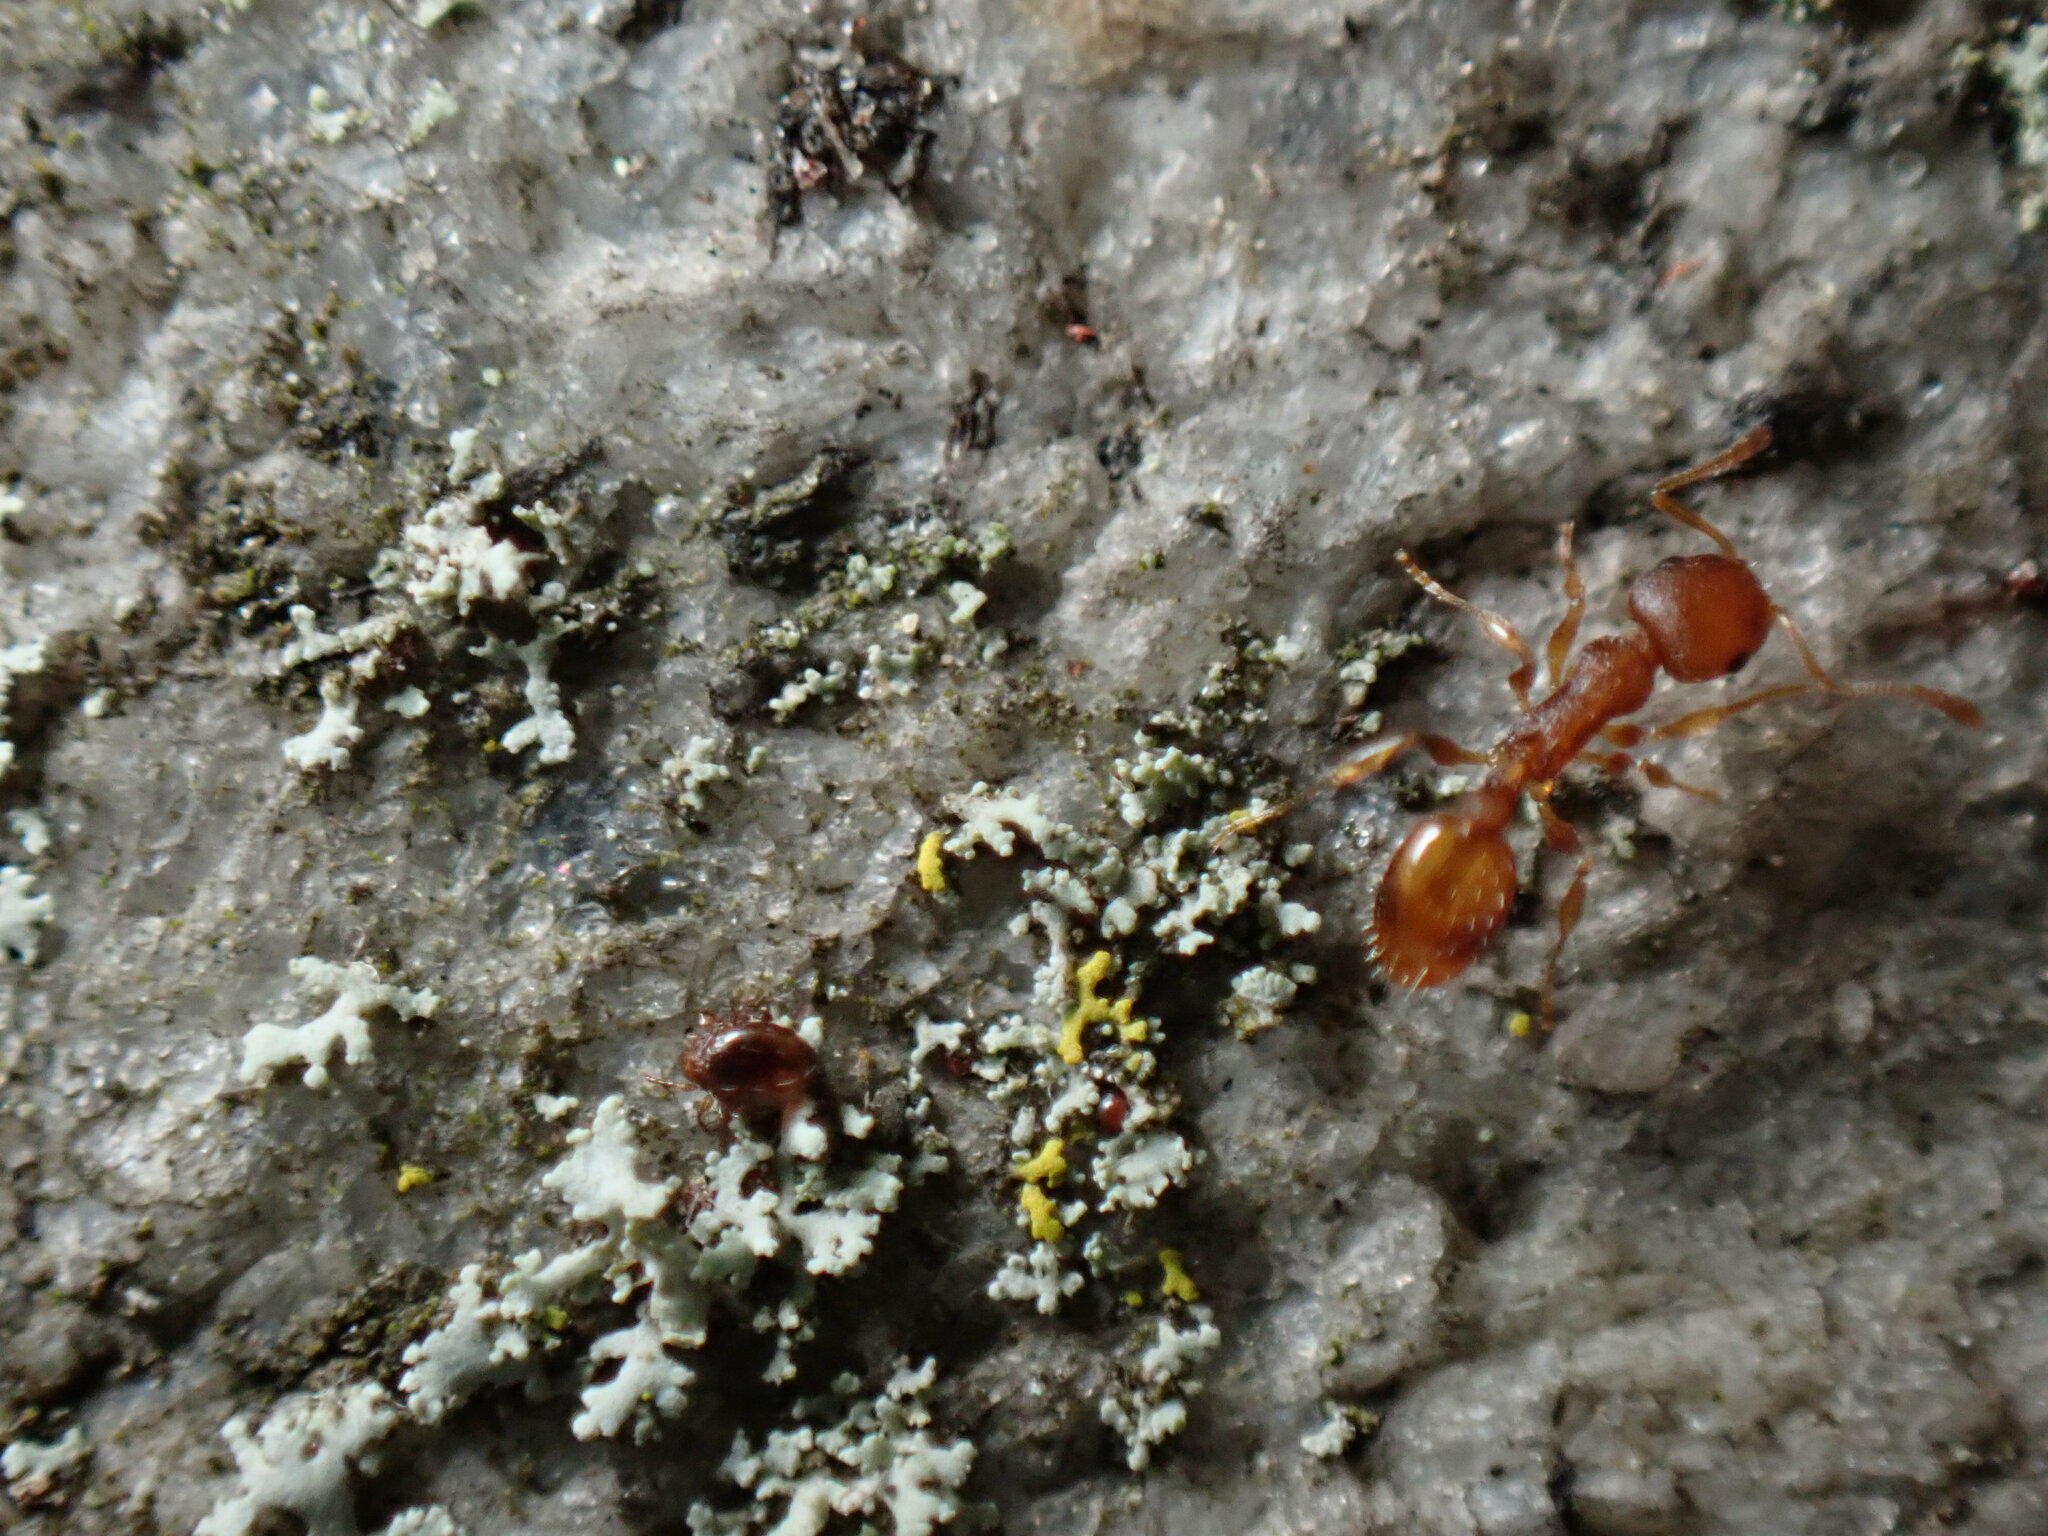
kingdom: Animalia
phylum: Arthropoda
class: Insecta
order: Hymenoptera
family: Formicidae
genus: Temnothorax
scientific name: Temnothorax curvispinosus
